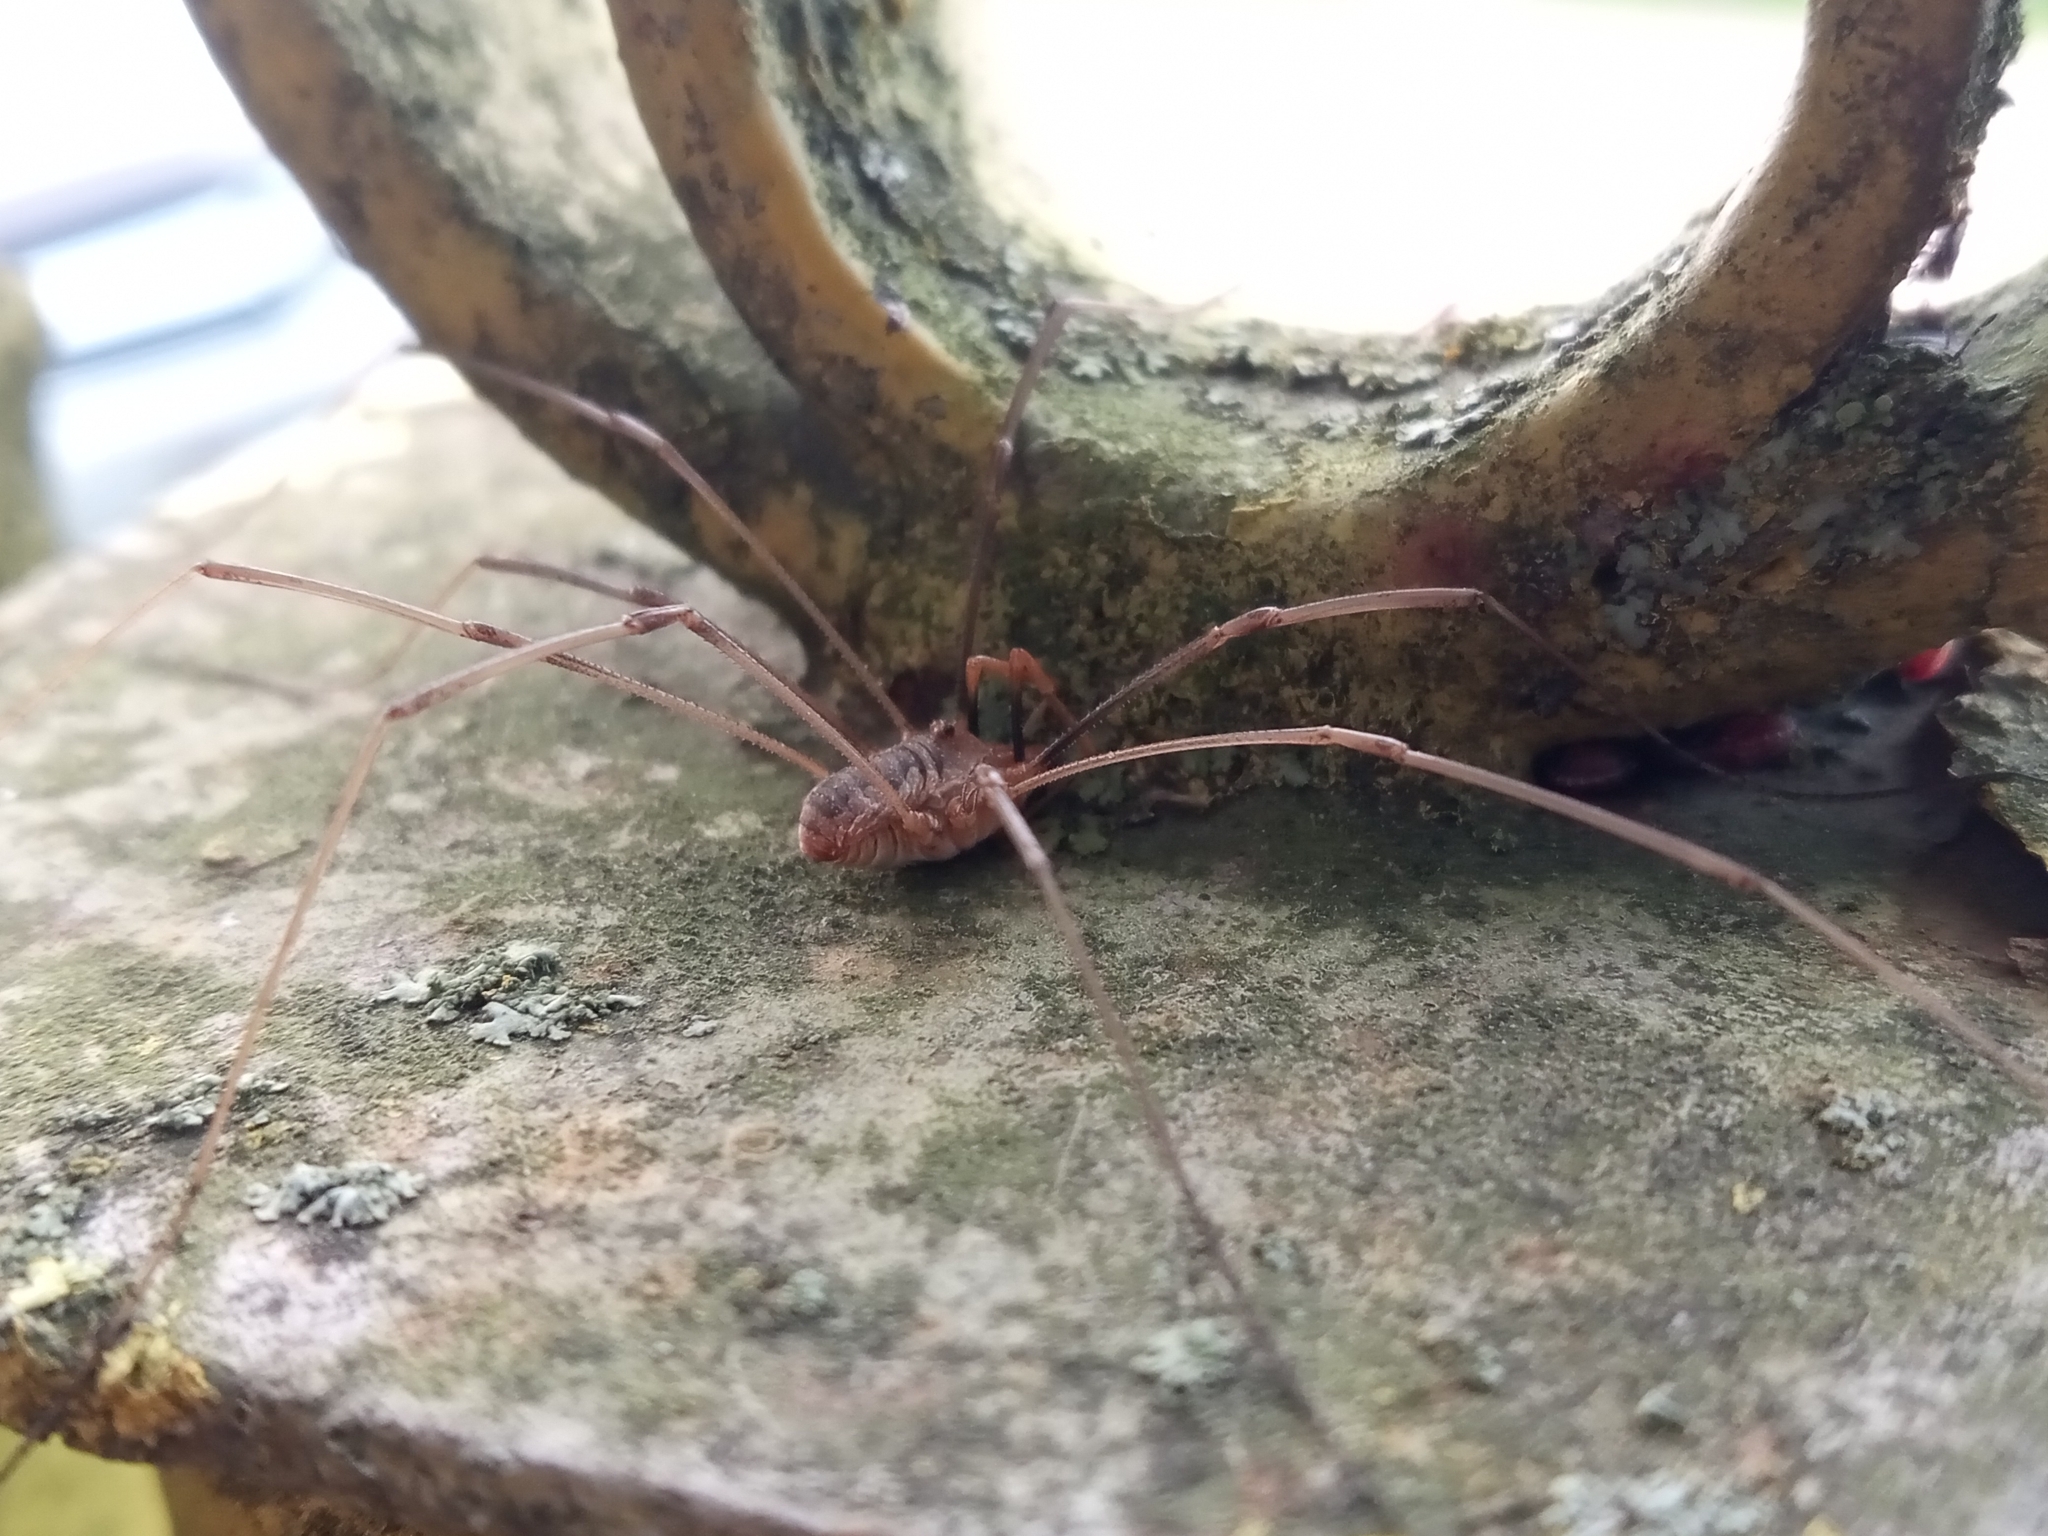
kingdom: Animalia
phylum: Arthropoda
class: Arachnida
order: Opiliones
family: Phalangiidae
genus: Phalangium
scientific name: Phalangium opilio
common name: Daddy longleg
